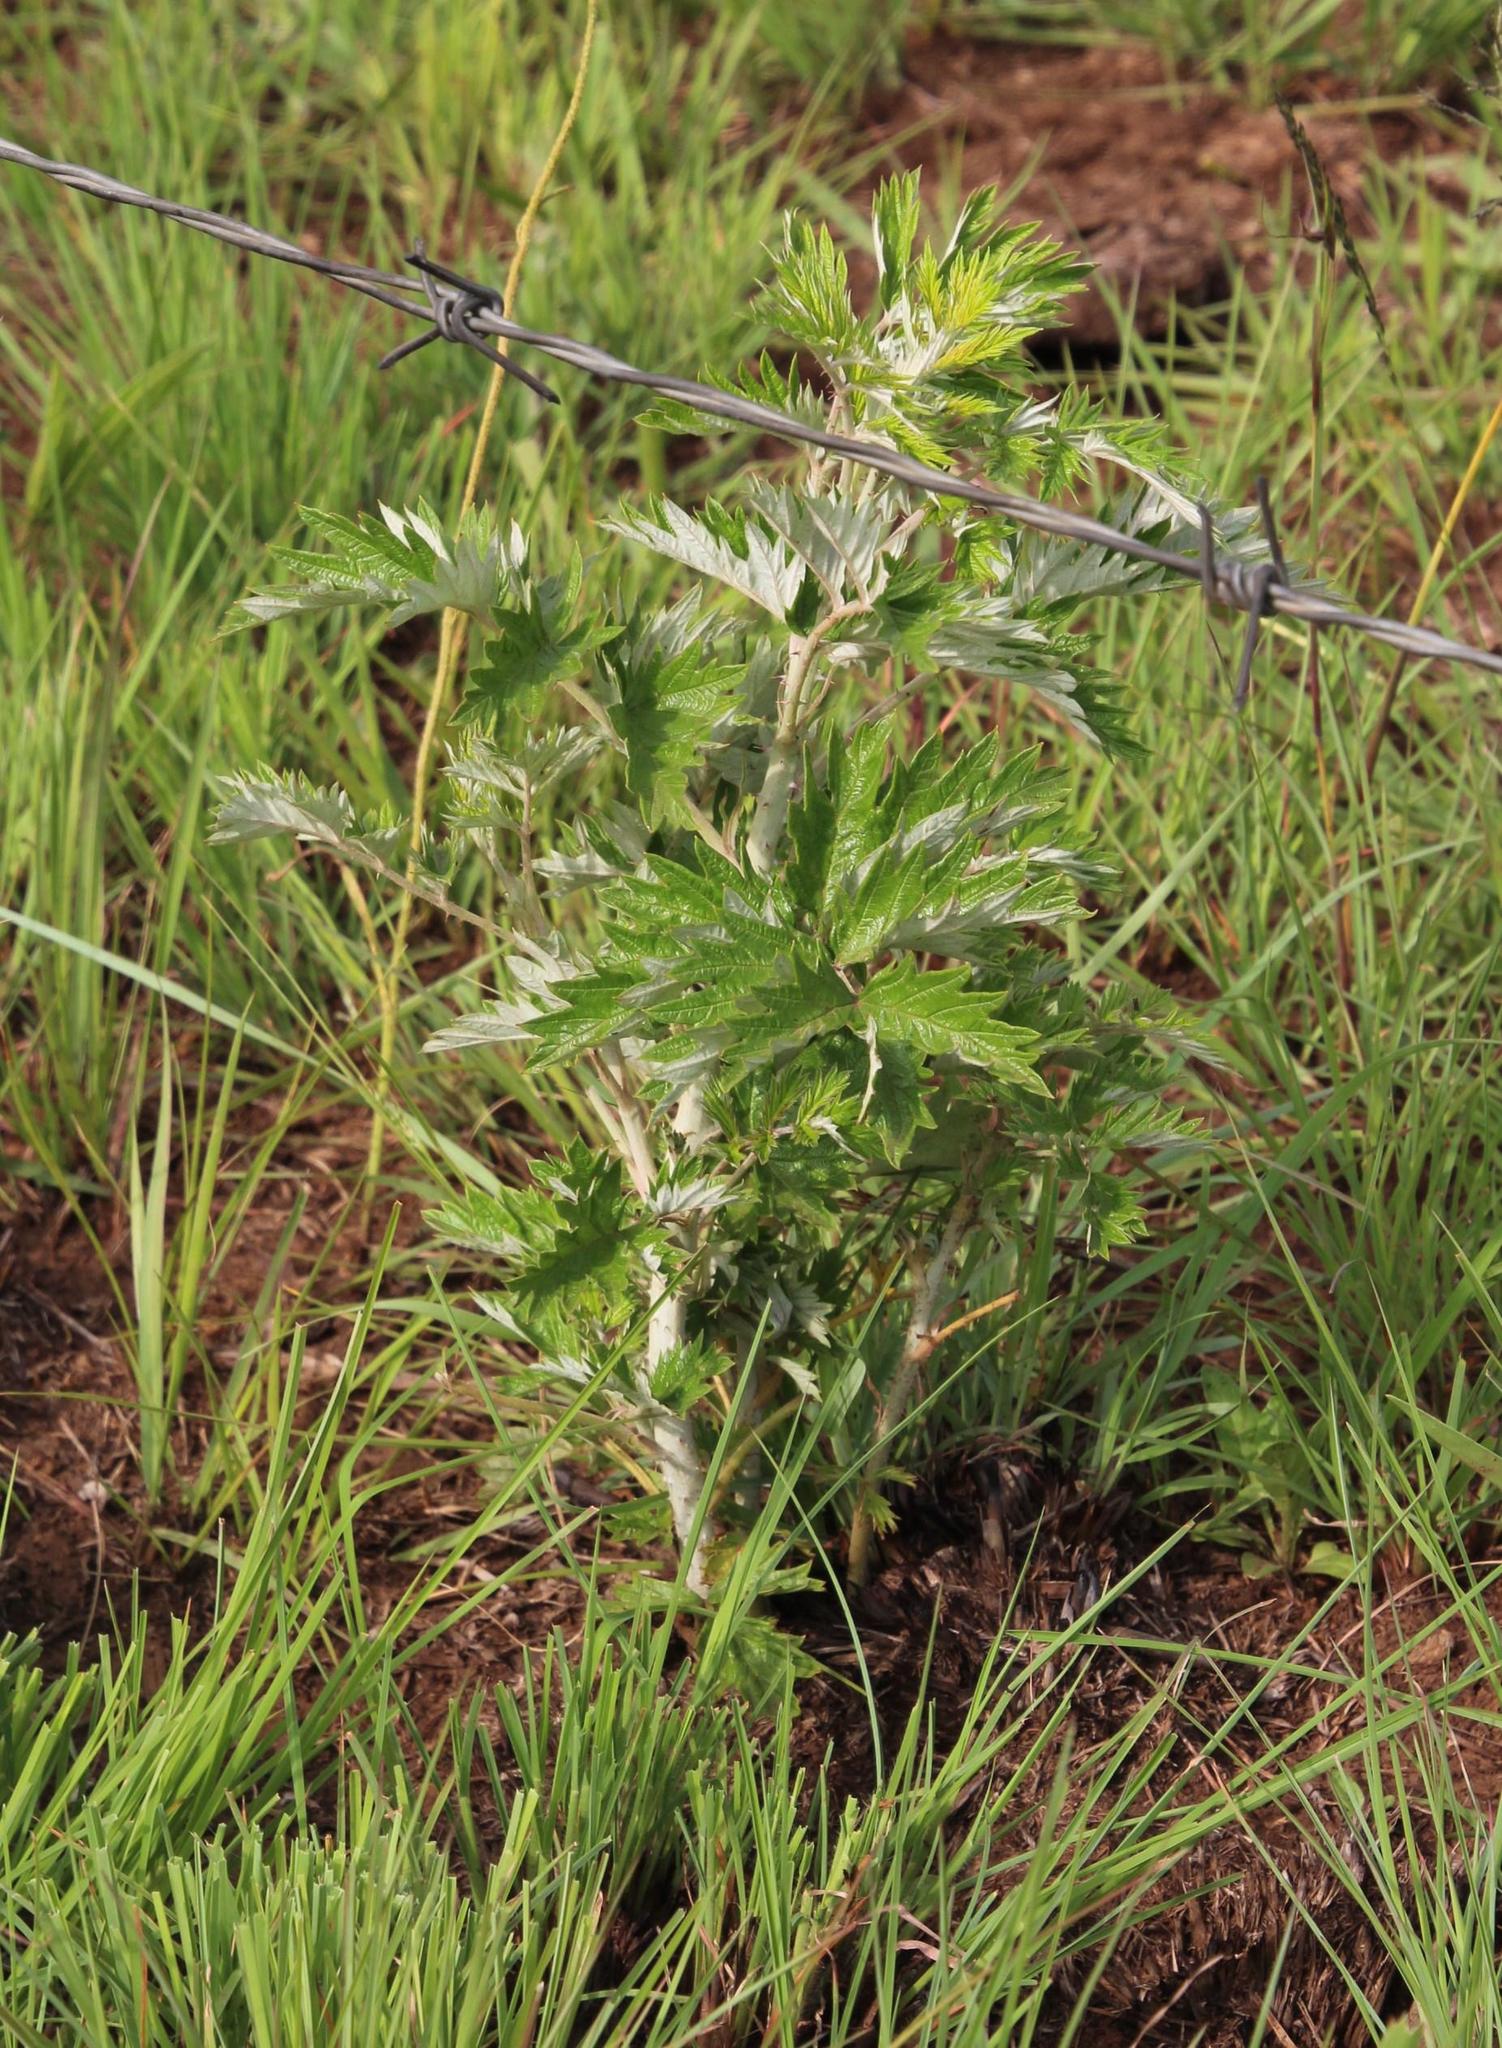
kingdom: Plantae
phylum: Tracheophyta
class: Magnoliopsida
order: Rosales
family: Rosaceae
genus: Rubus
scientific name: Rubus ludwigii
